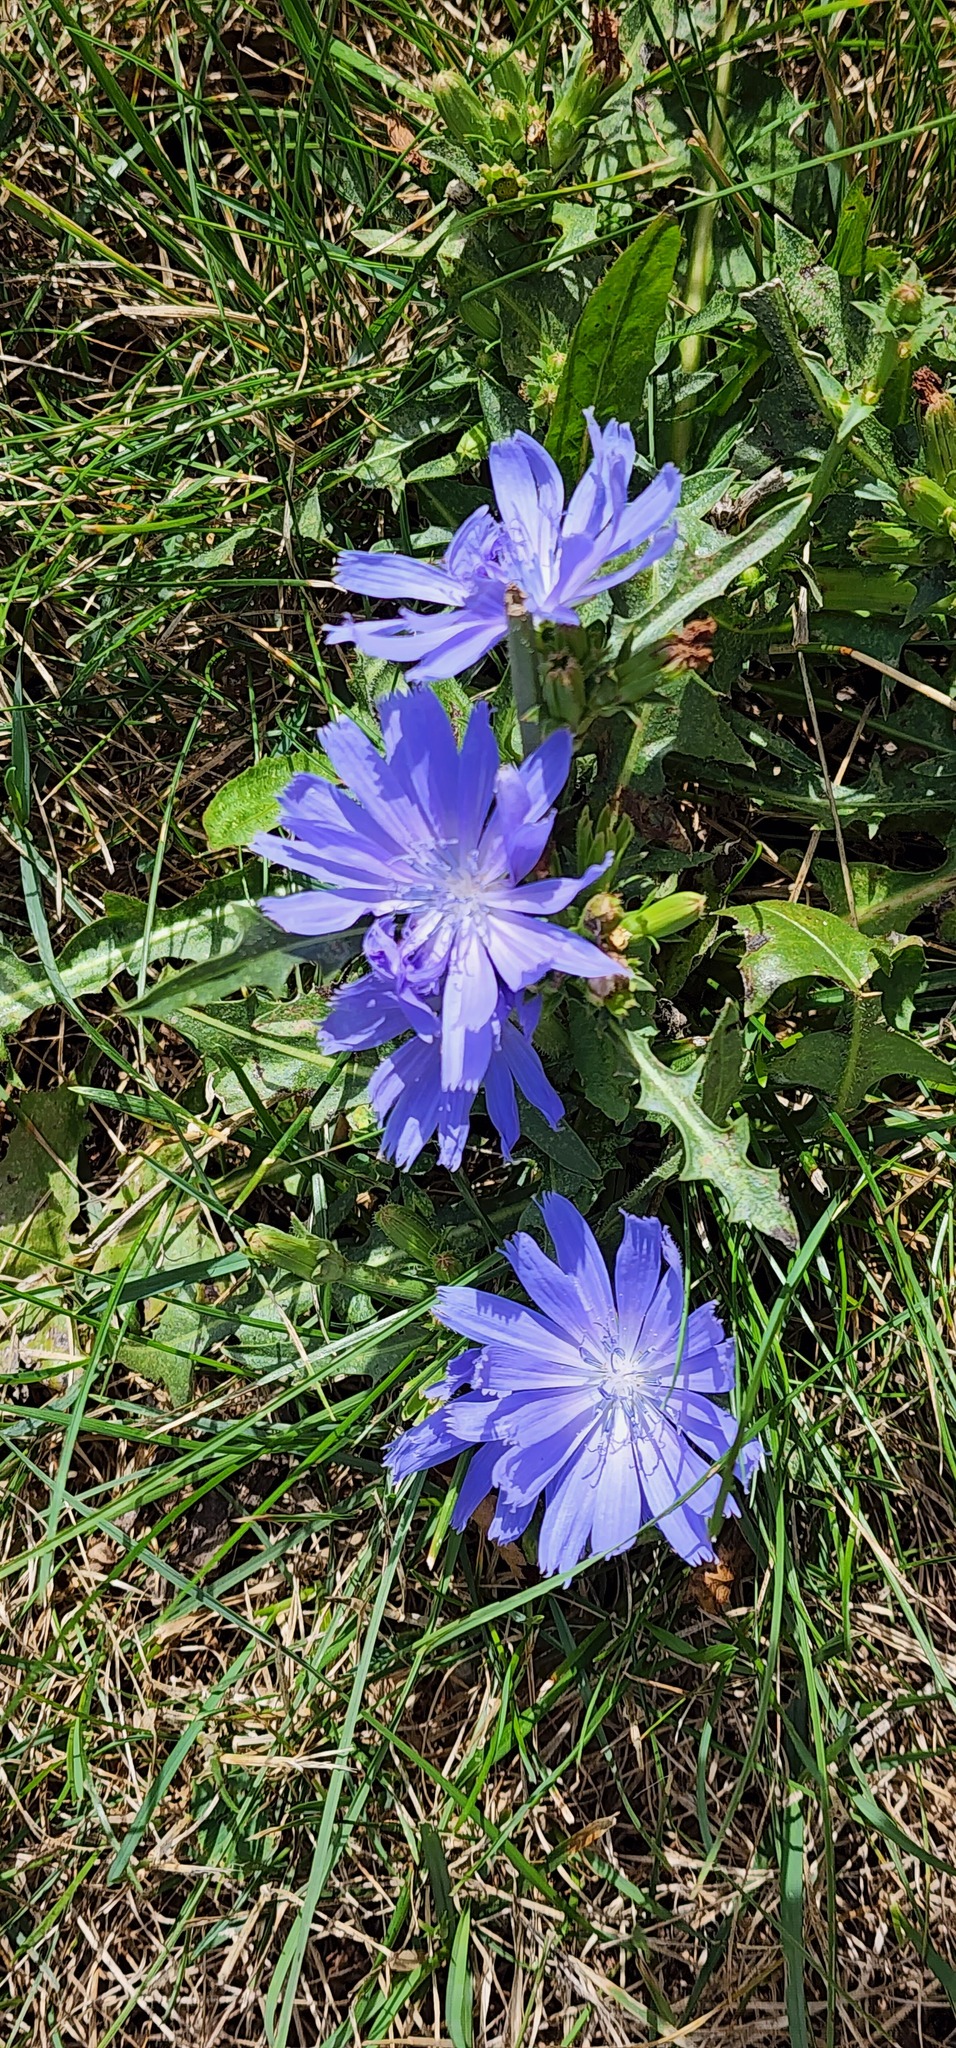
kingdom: Plantae
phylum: Tracheophyta
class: Magnoliopsida
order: Asterales
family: Asteraceae
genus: Cichorium
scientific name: Cichorium intybus
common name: Chicory
